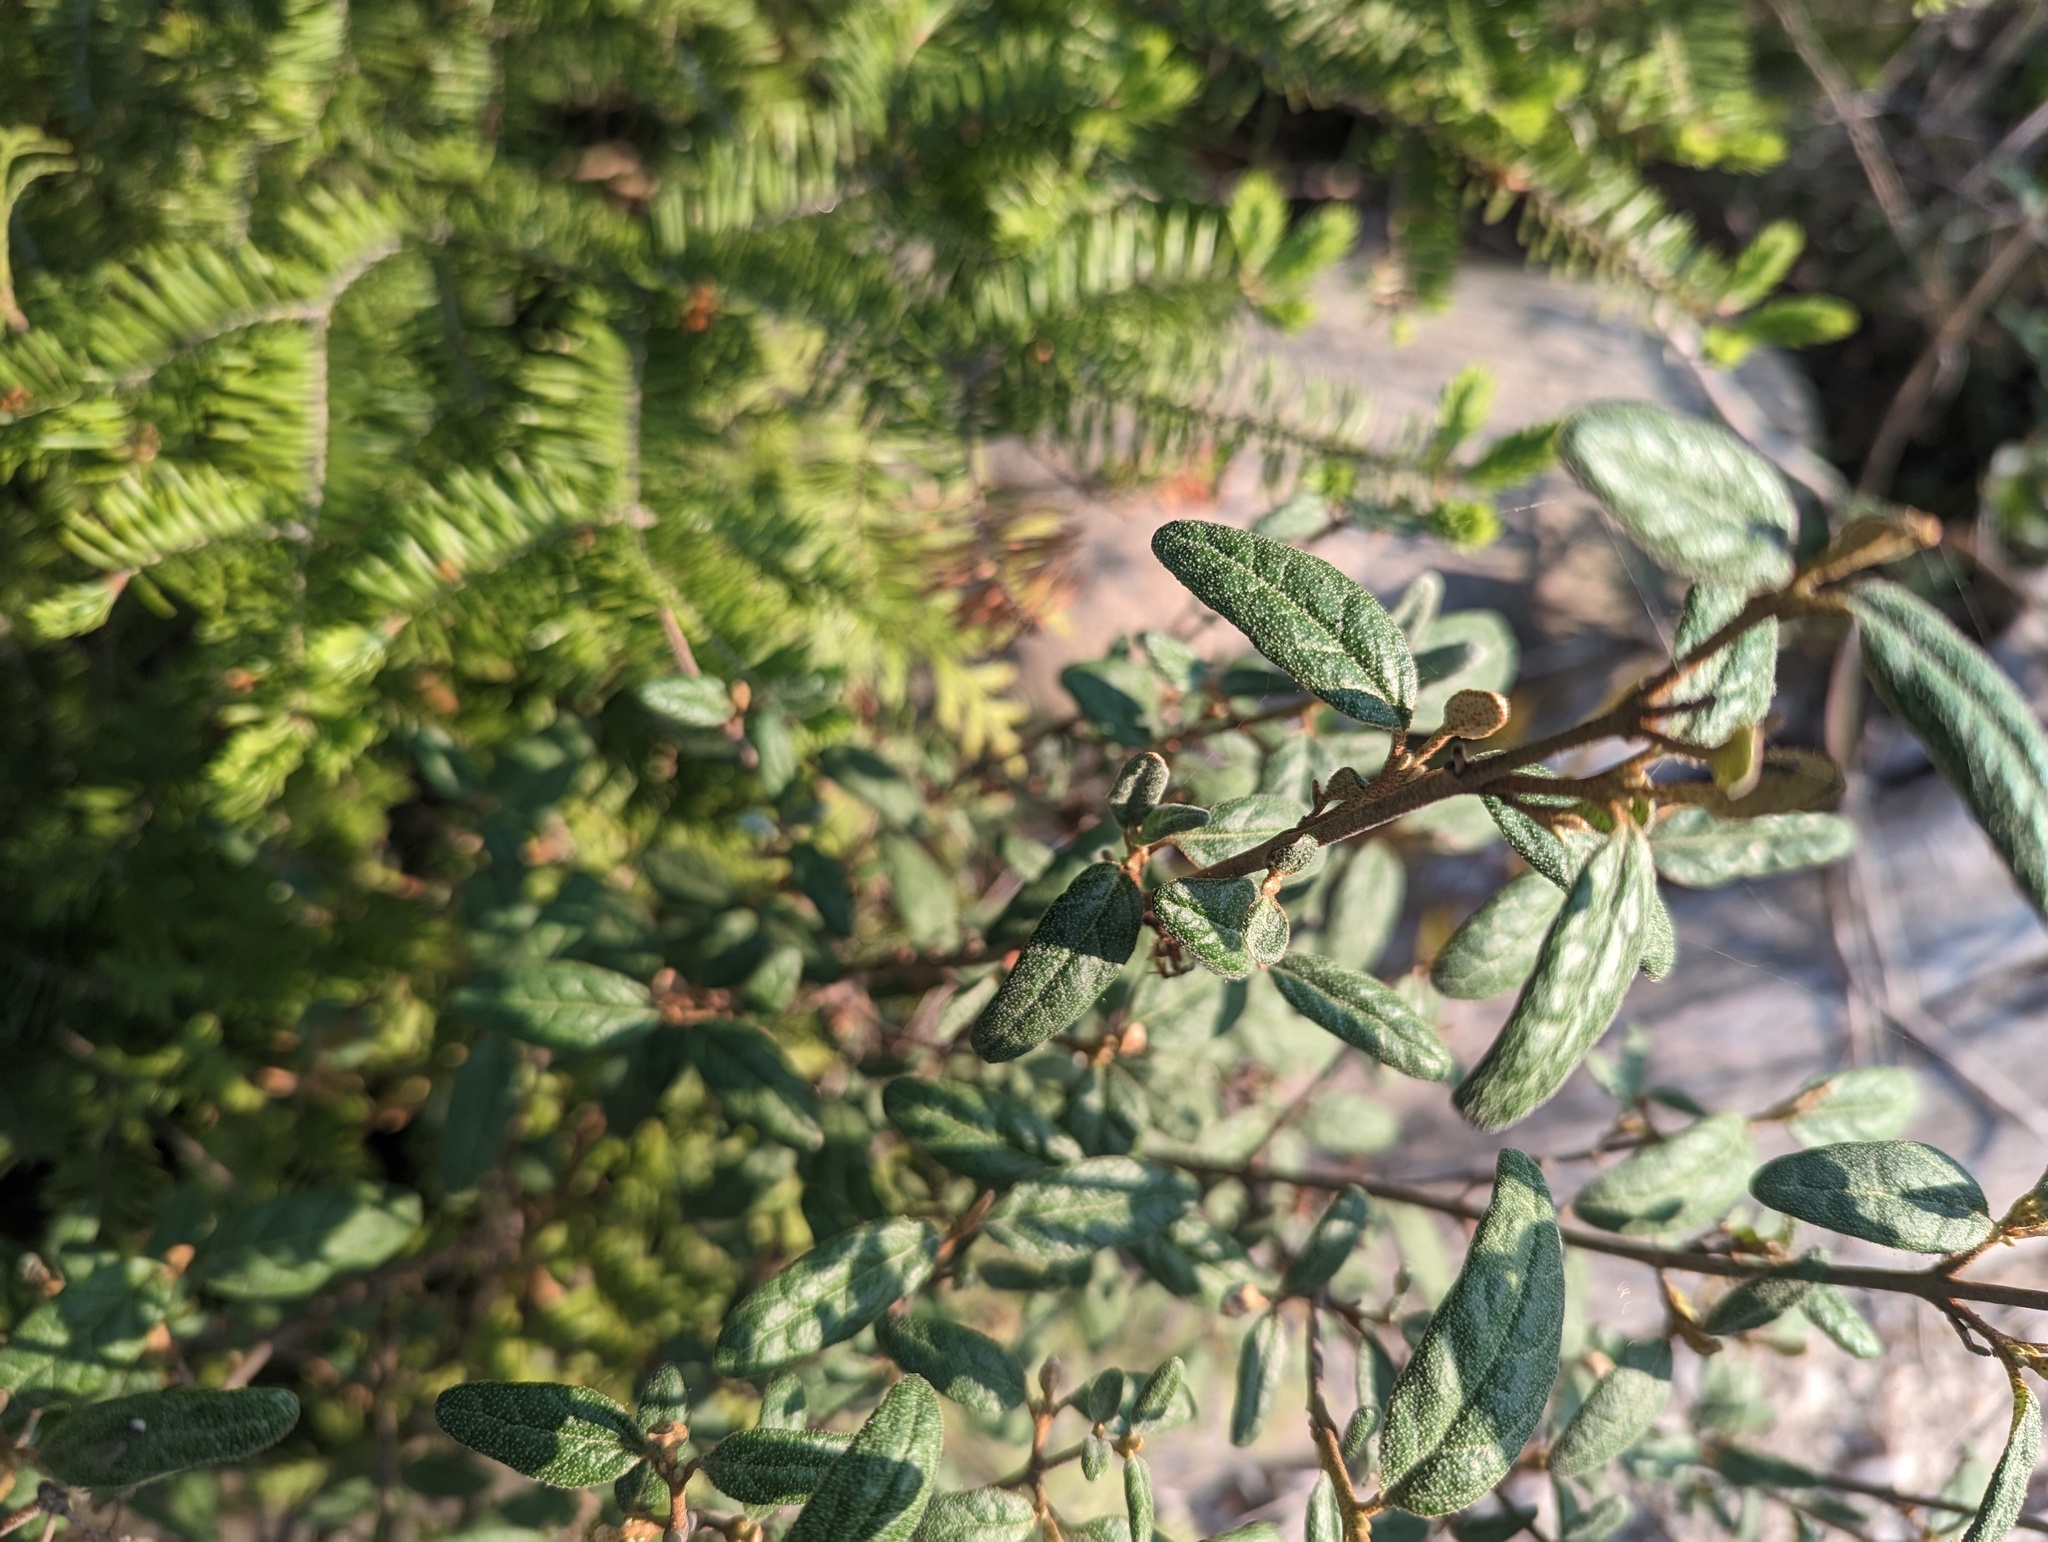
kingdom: Plantae
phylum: Tracheophyta
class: Magnoliopsida
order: Rosales
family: Elaeagnaceae
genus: Shepherdia
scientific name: Shepherdia canadensis
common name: Soapberry
